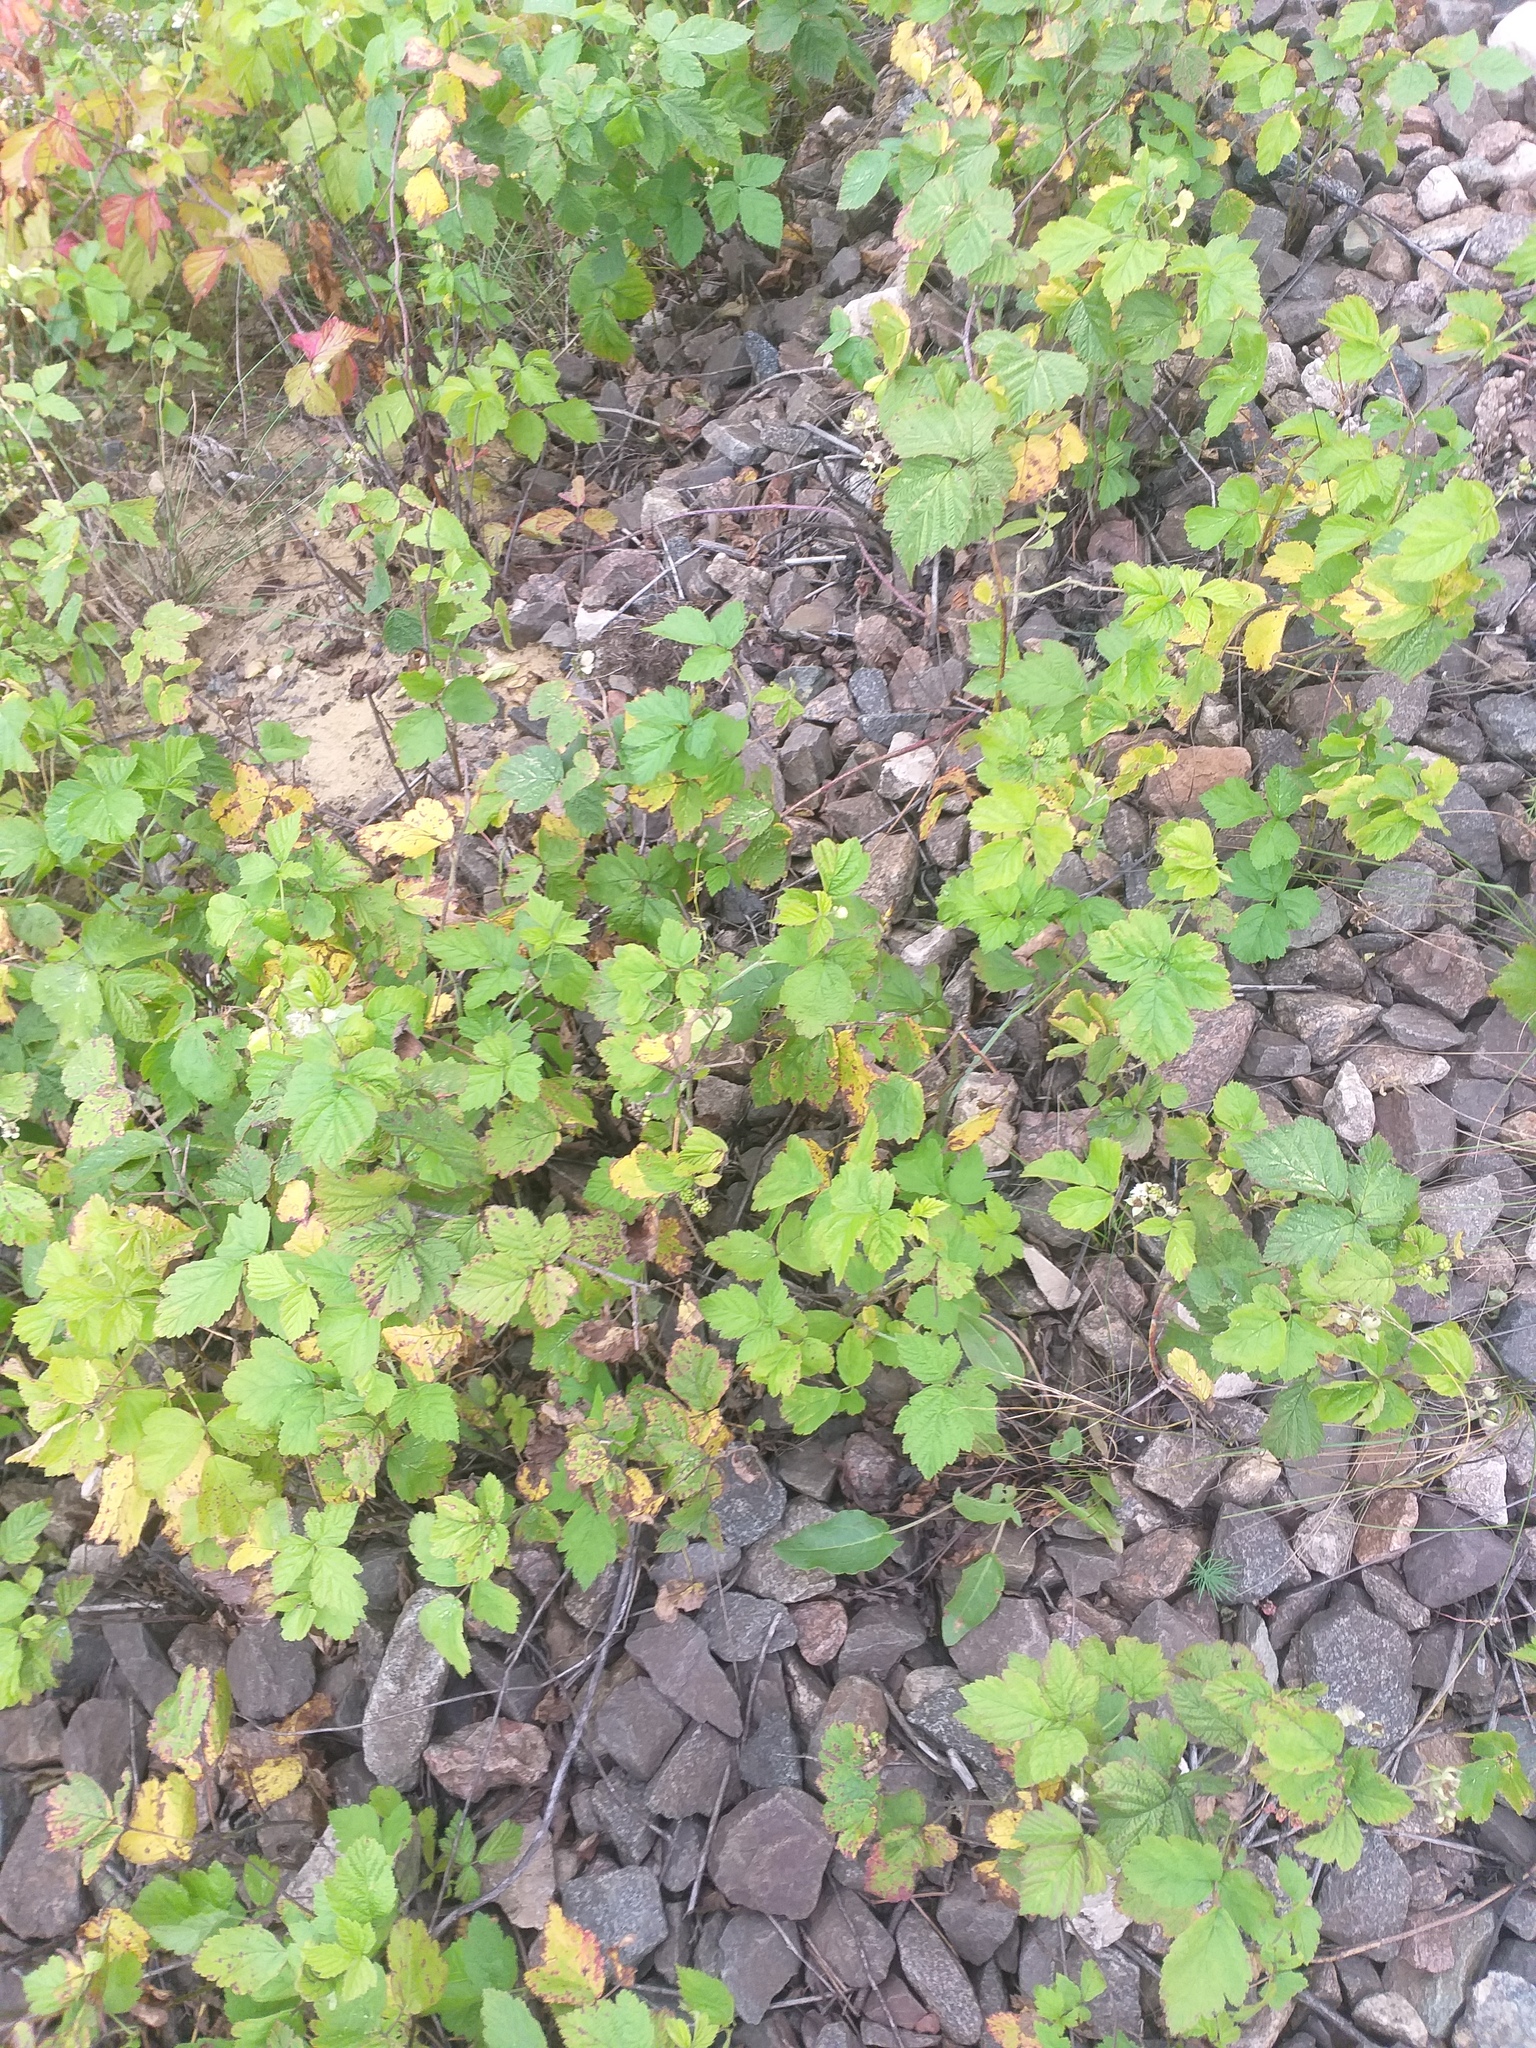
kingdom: Plantae
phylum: Tracheophyta
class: Magnoliopsida
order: Rosales
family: Rosaceae
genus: Rubus
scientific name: Rubus caesius
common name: Dewberry
